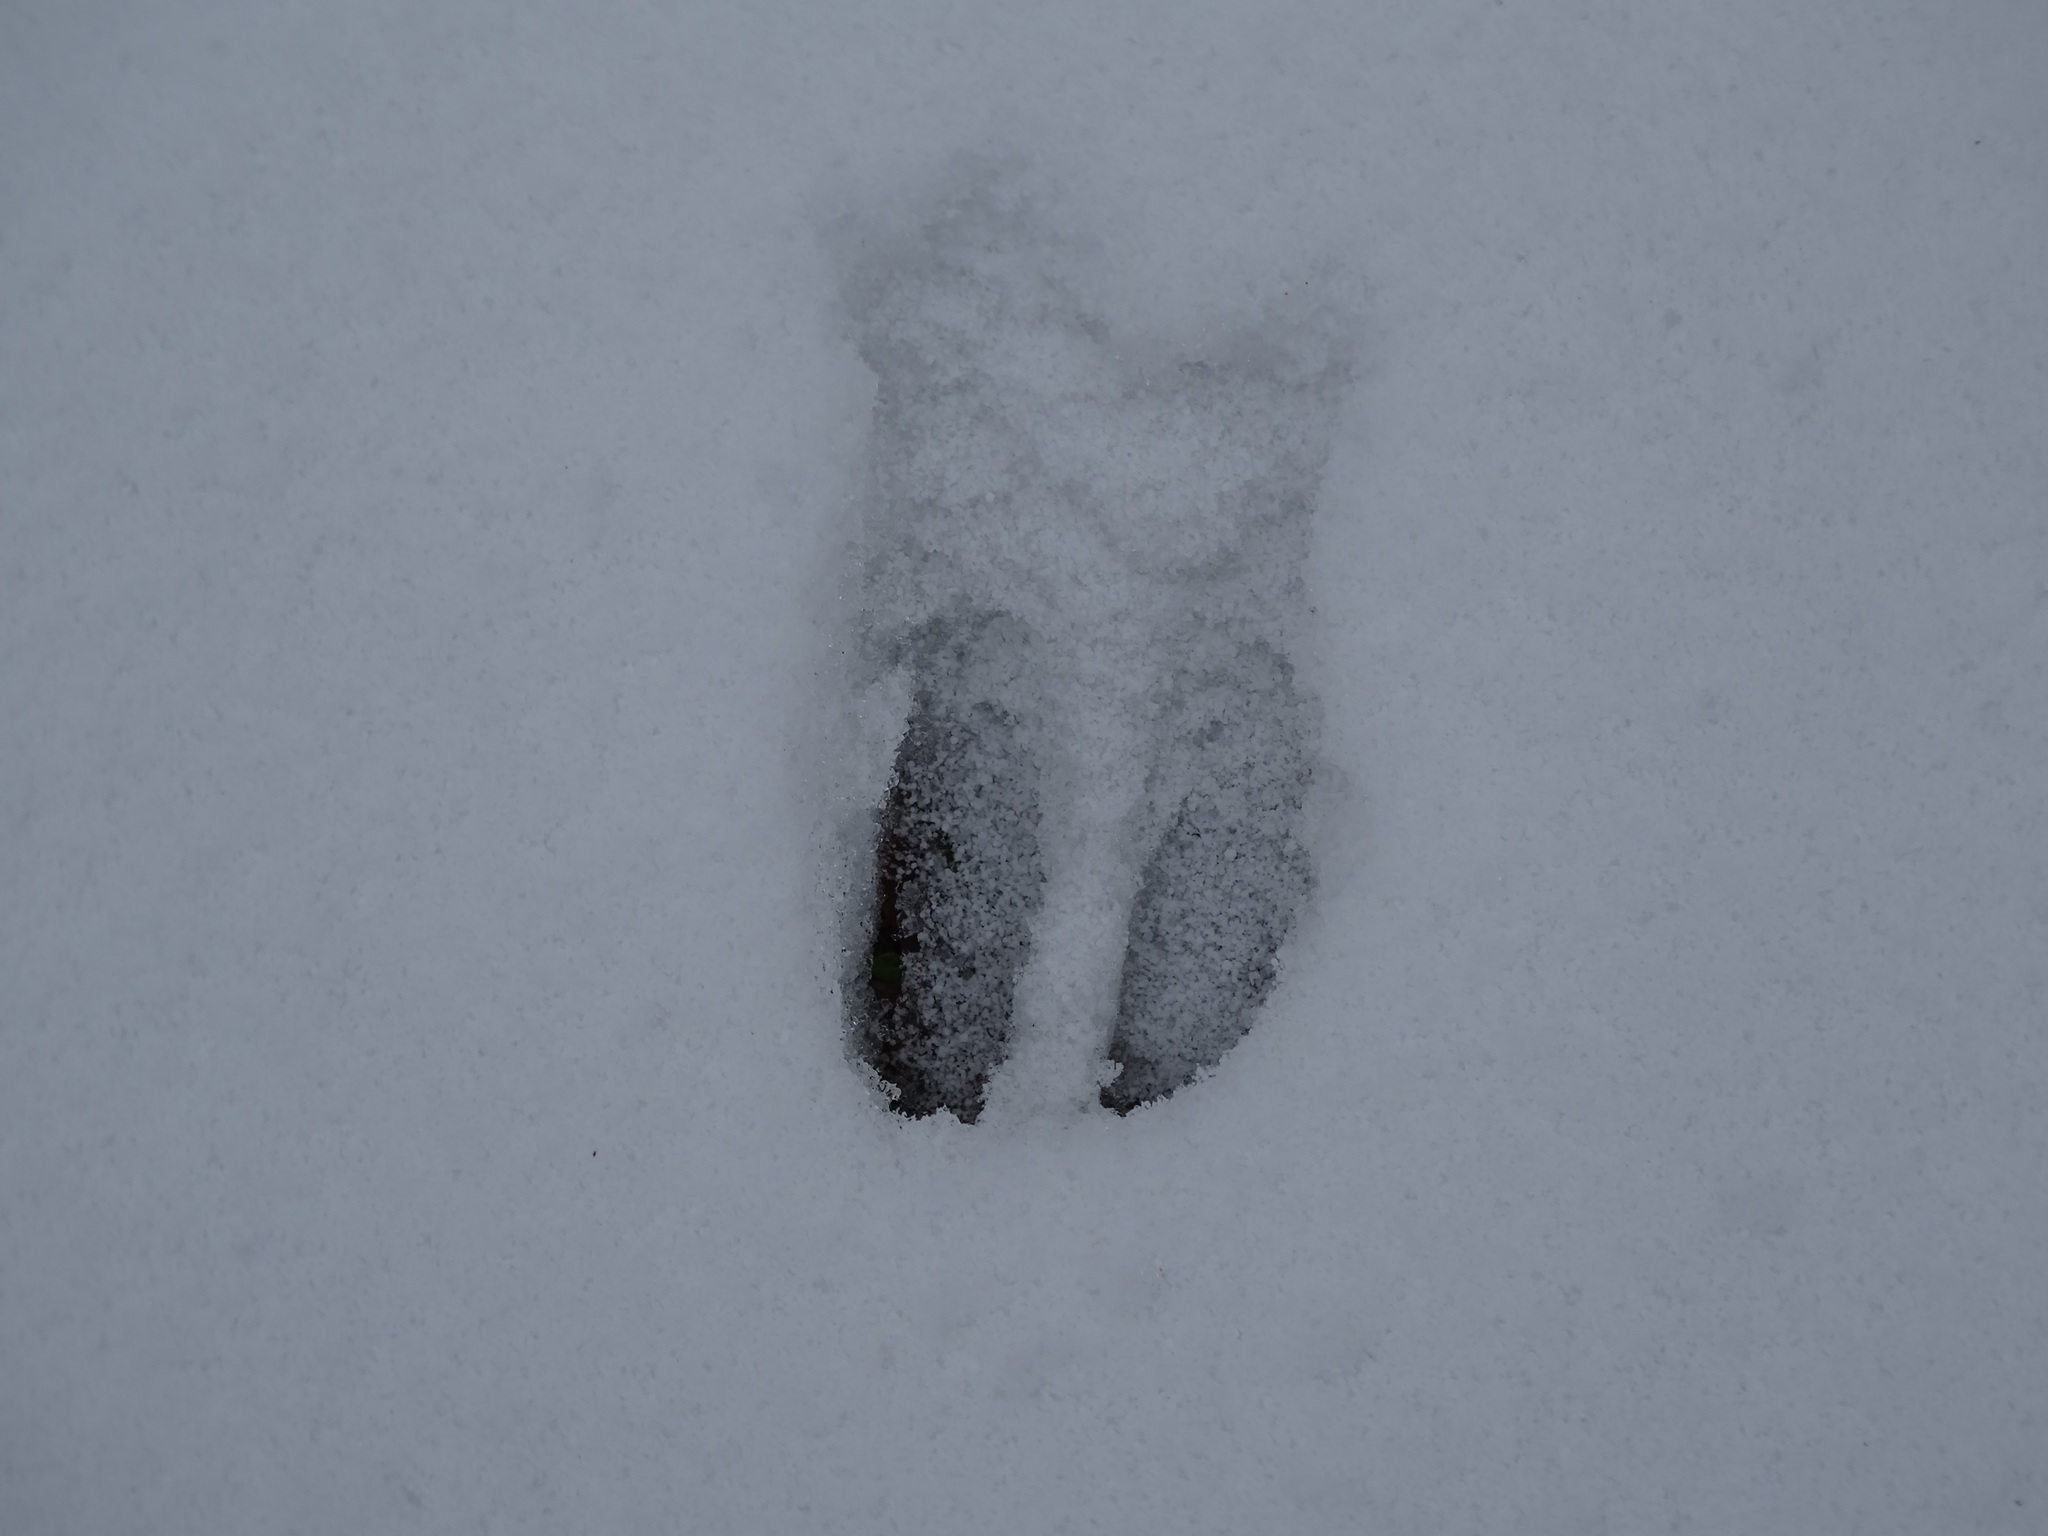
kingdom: Animalia
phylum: Chordata
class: Mammalia
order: Artiodactyla
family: Cervidae
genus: Odocoileus
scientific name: Odocoileus virginianus
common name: White-tailed deer
